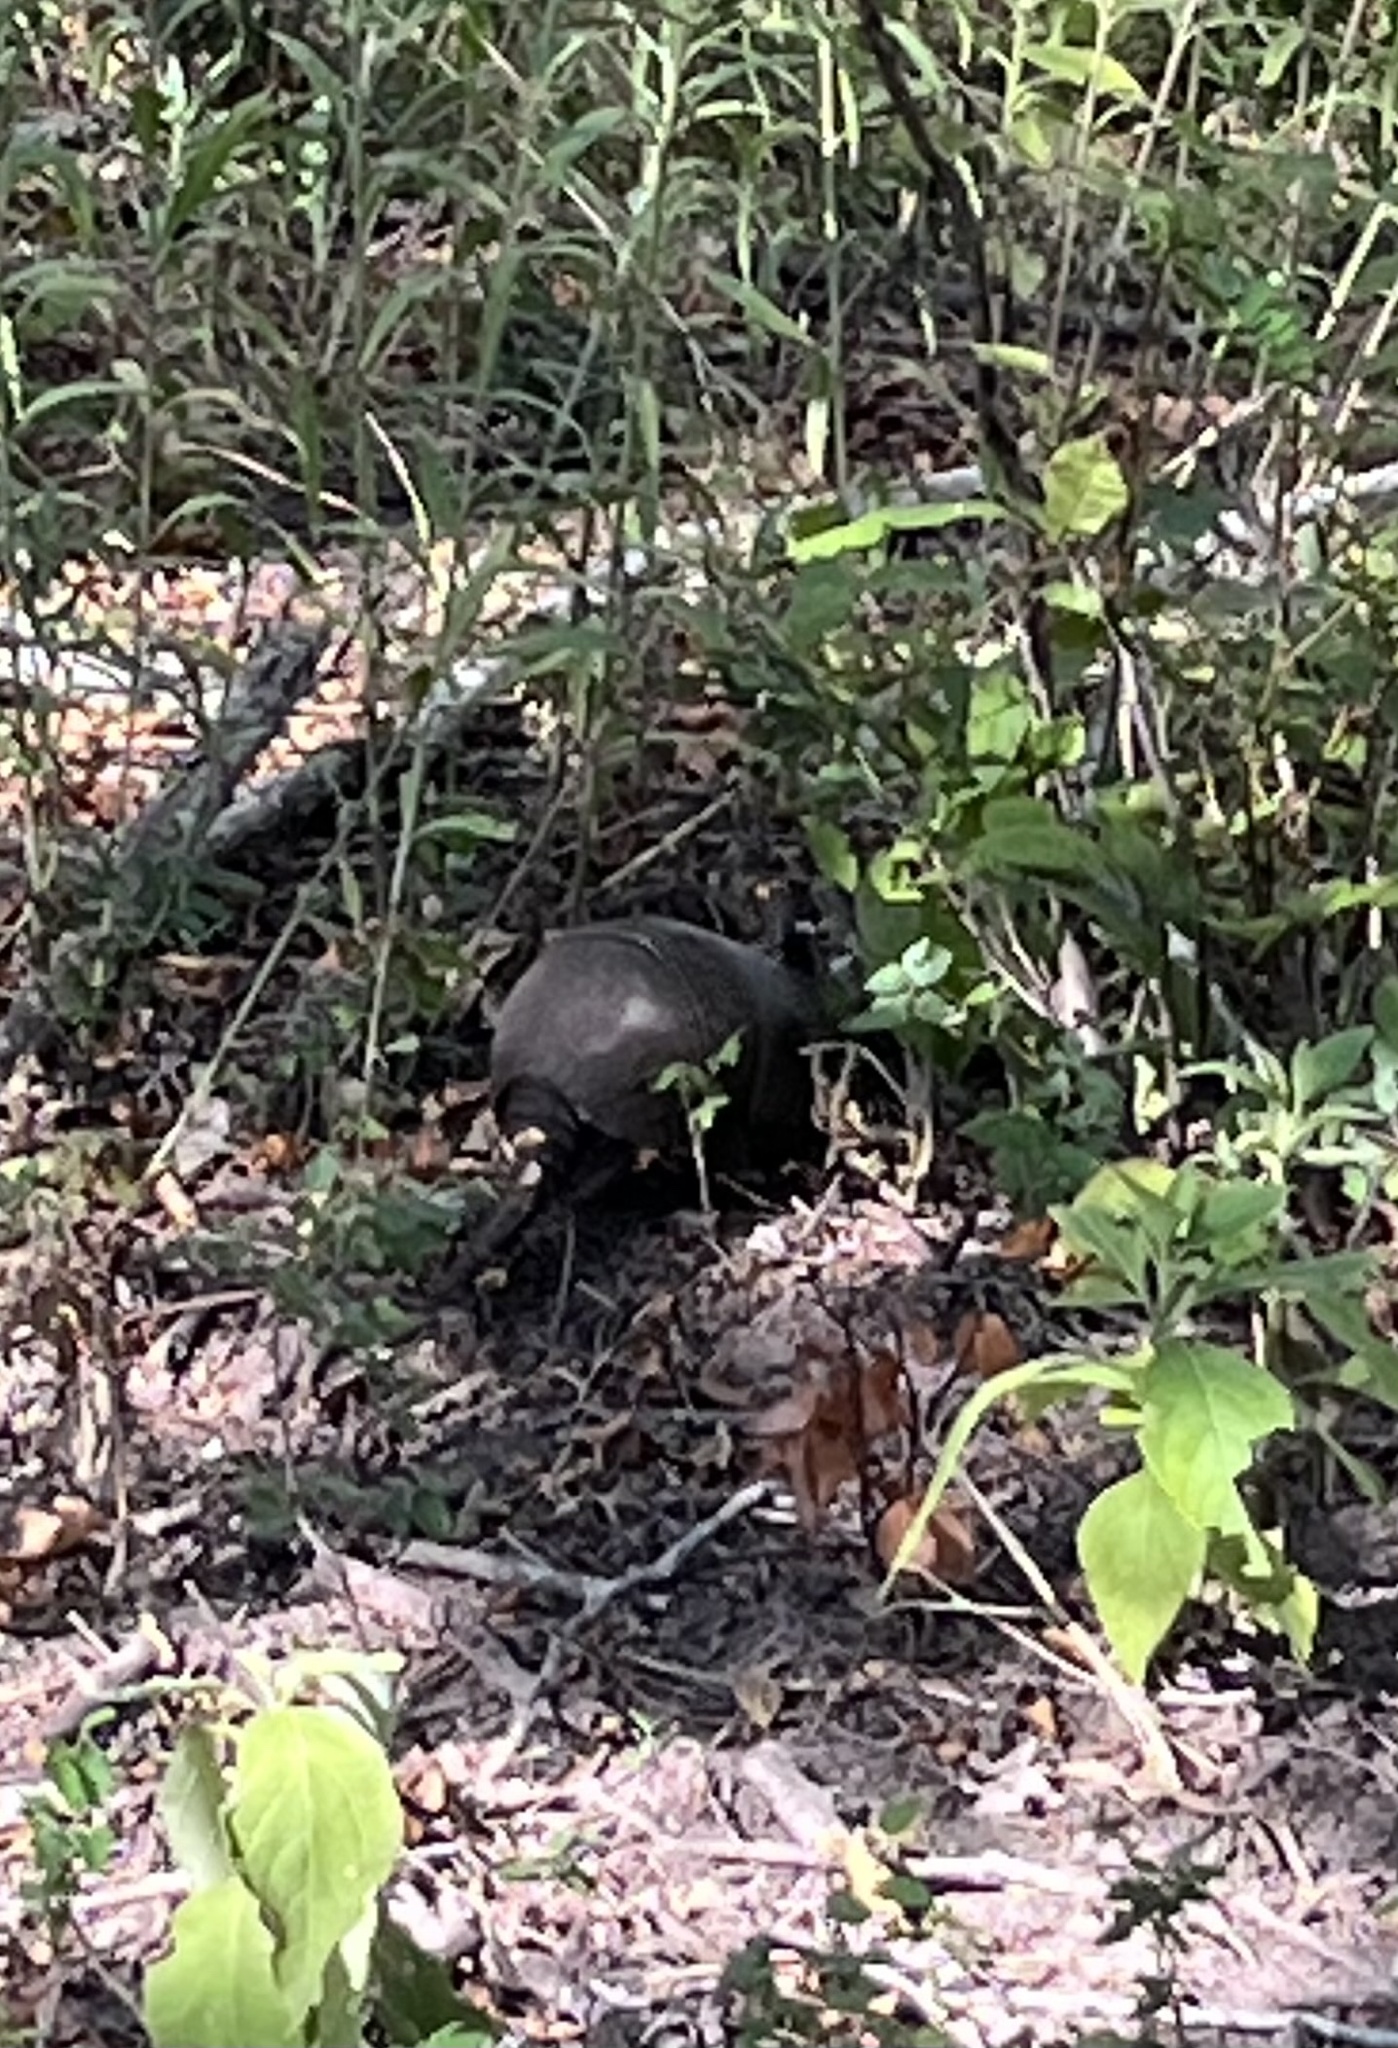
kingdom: Animalia
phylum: Chordata
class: Mammalia
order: Cingulata
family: Dasypodidae
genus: Dasypus
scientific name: Dasypus novemcinctus
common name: Nine-banded armadillo
